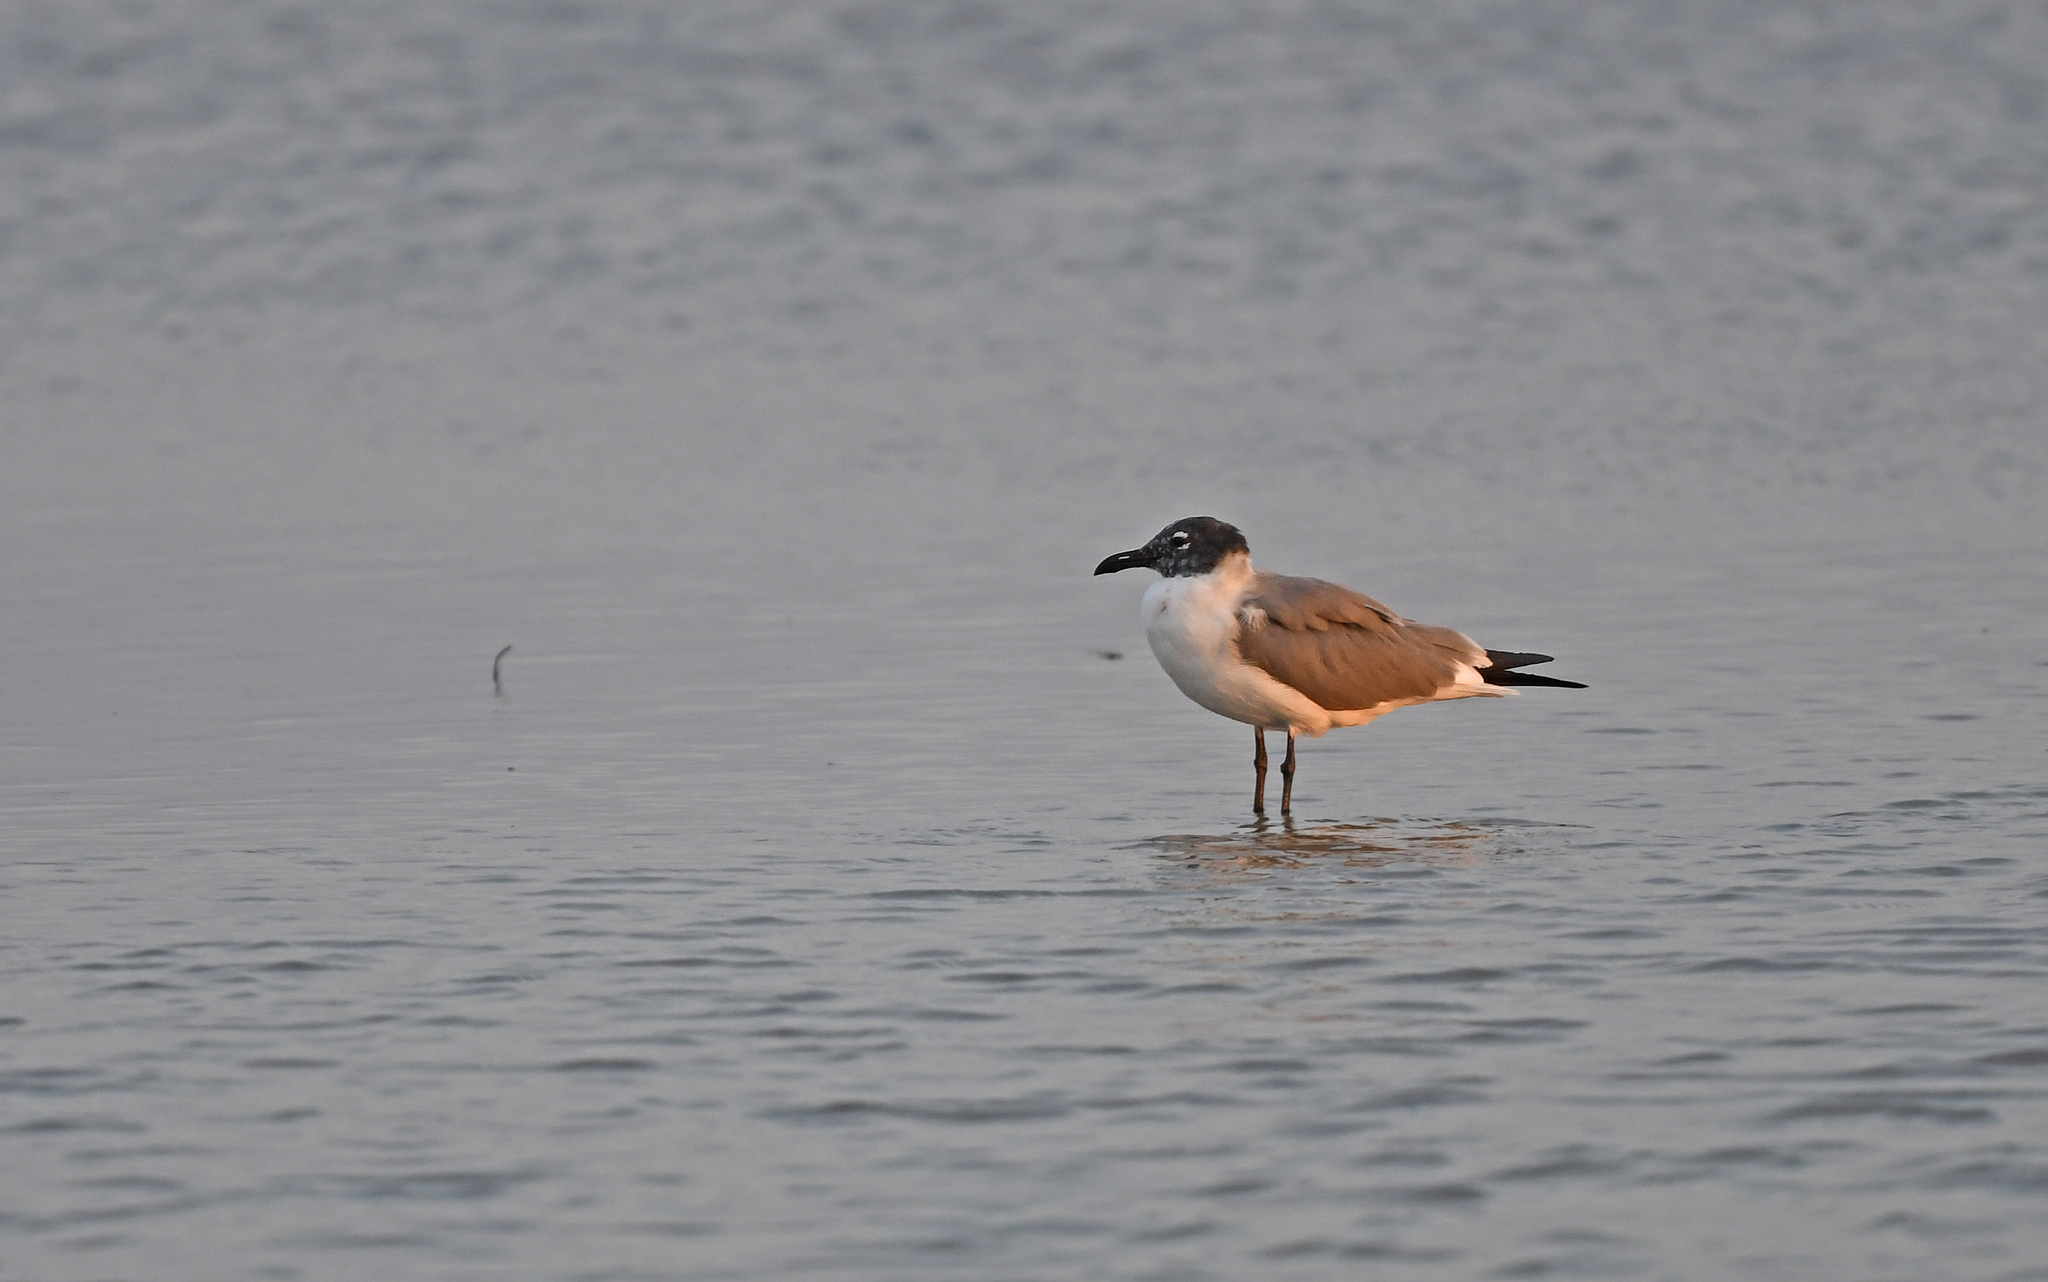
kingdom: Animalia
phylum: Chordata
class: Aves
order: Charadriiformes
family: Laridae
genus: Leucophaeus
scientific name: Leucophaeus atricilla
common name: Laughing gull
